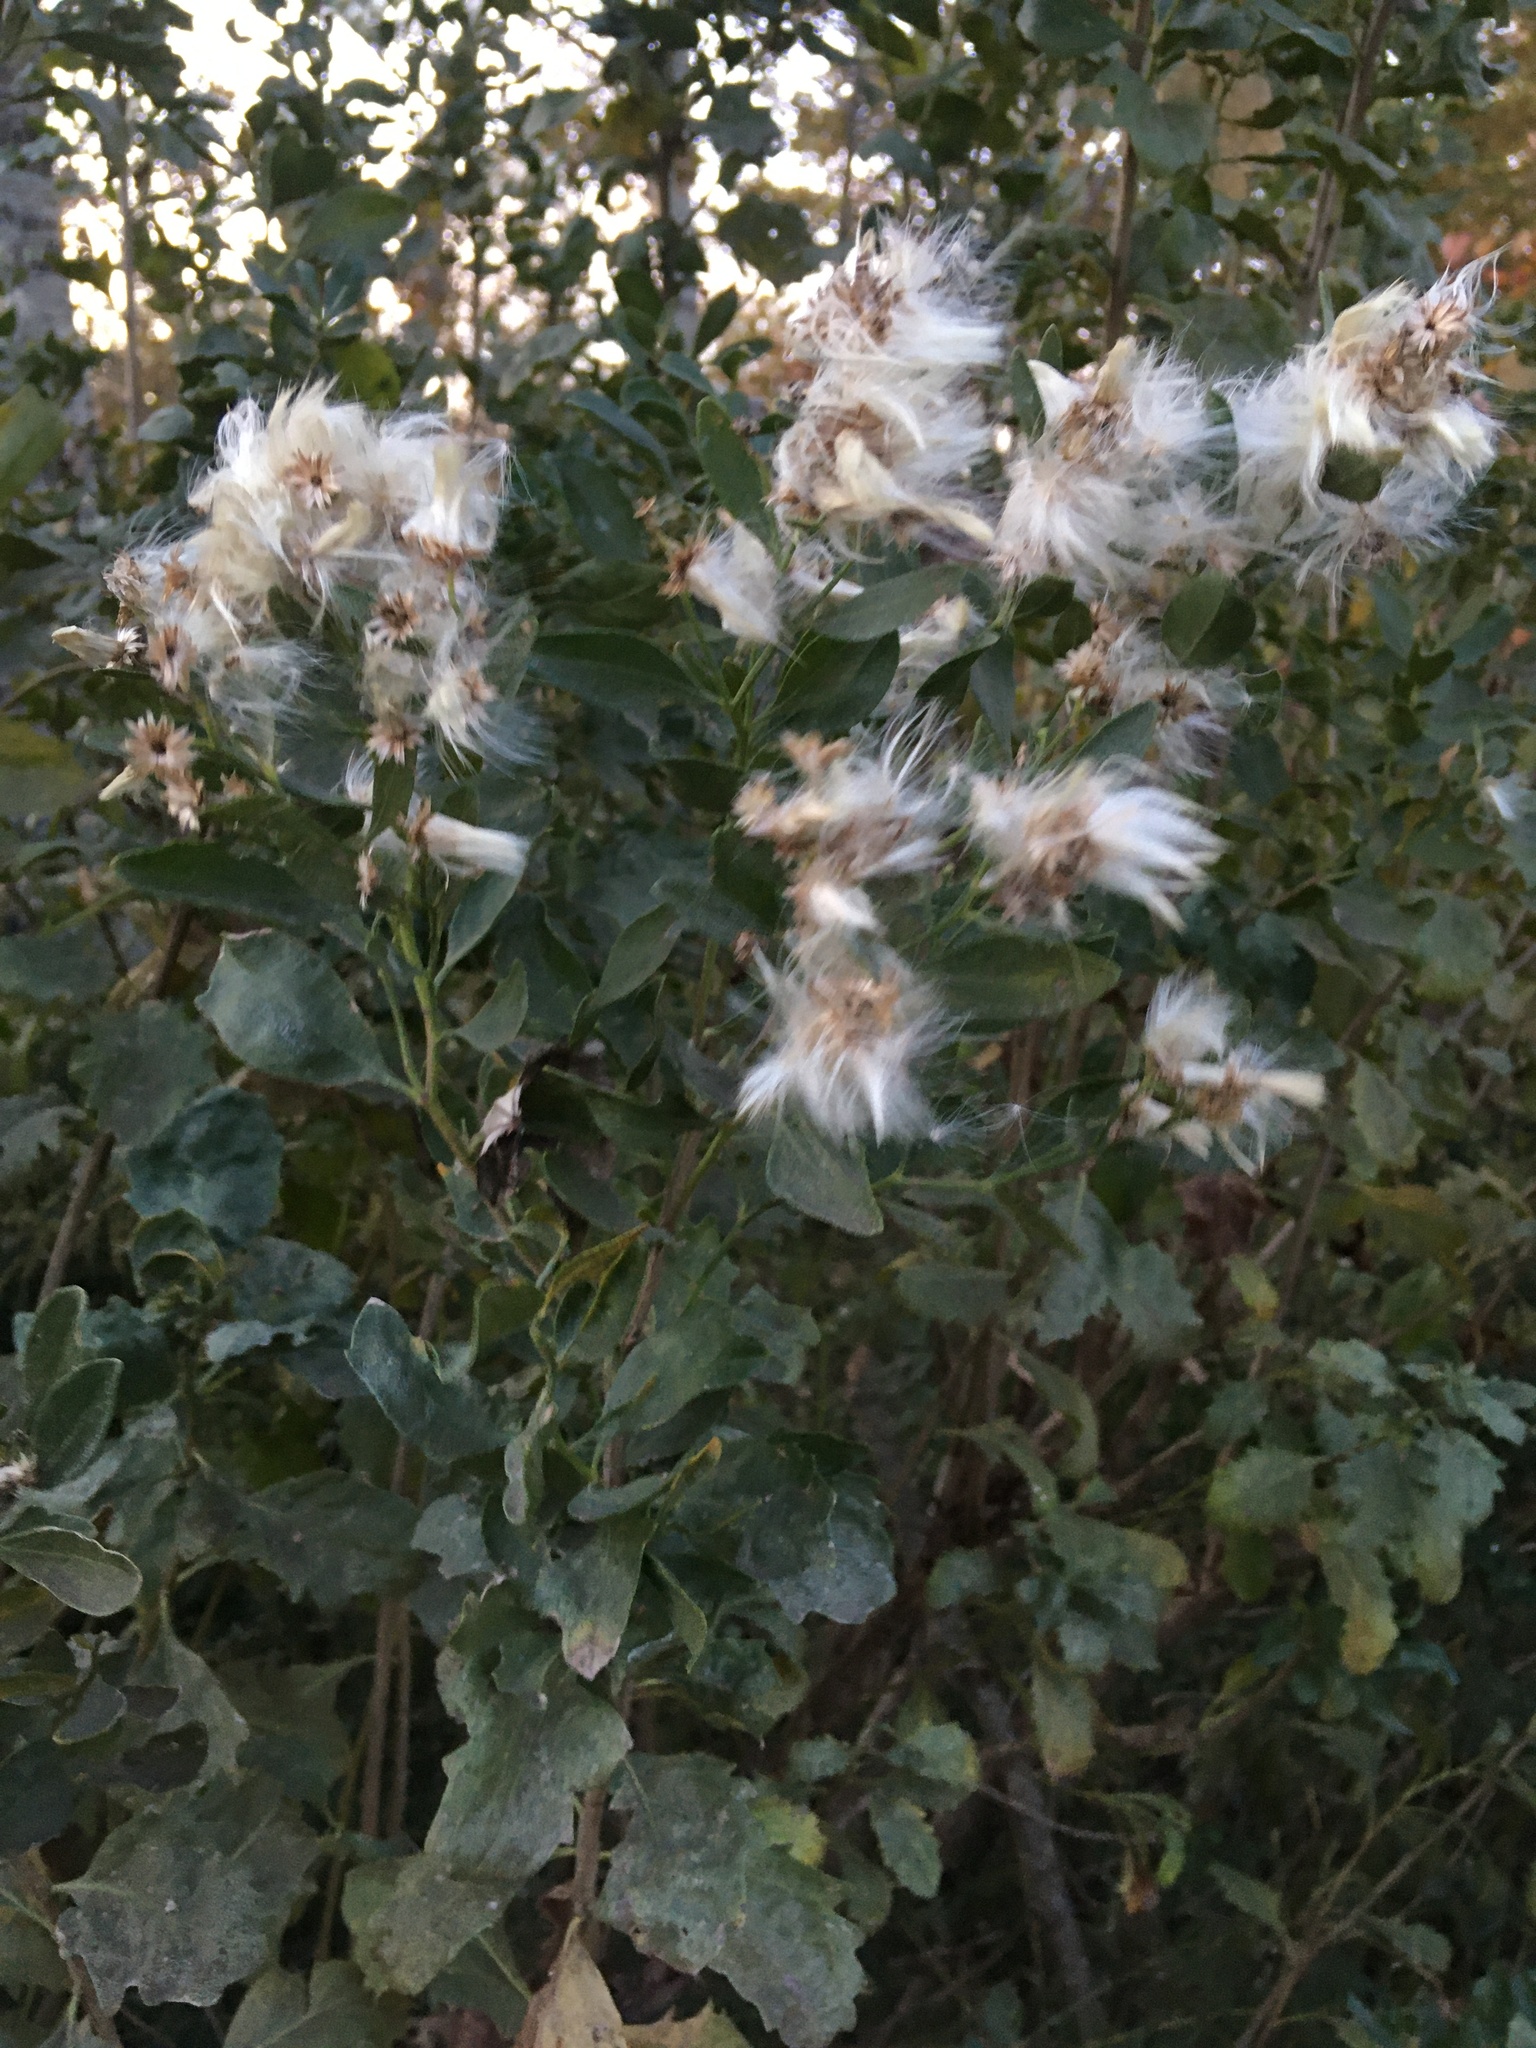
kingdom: Plantae
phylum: Tracheophyta
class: Magnoliopsida
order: Asterales
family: Asteraceae
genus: Baccharis
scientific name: Baccharis halimifolia
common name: Eastern baccharis
